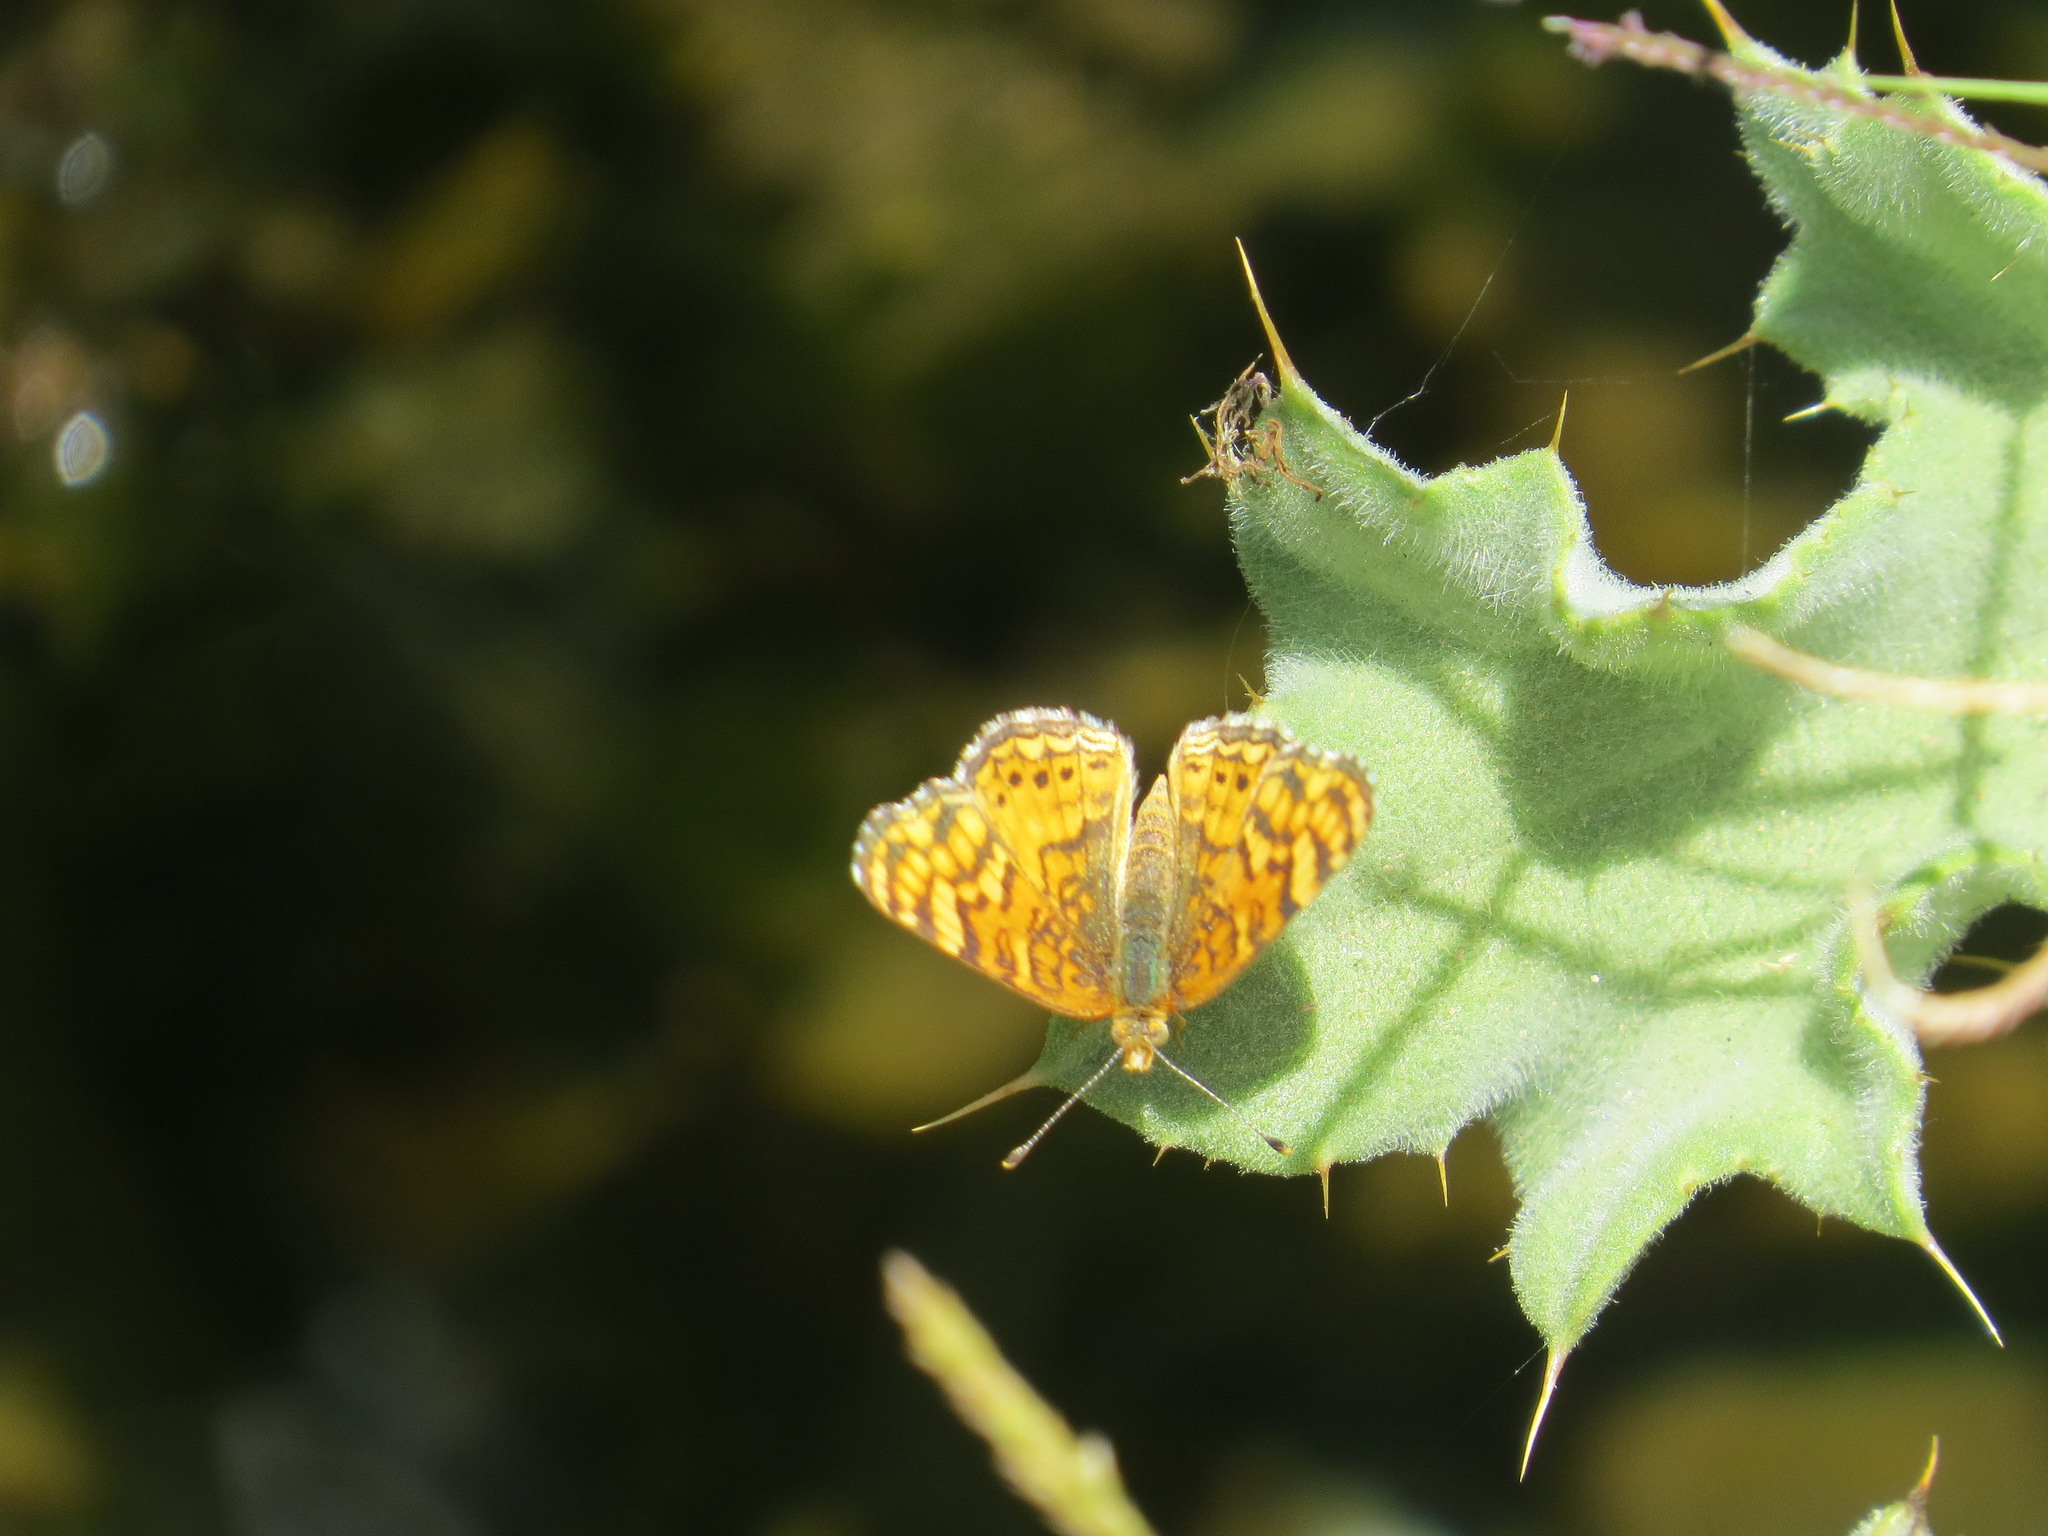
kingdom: Animalia
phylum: Arthropoda
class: Insecta
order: Lepidoptera
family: Nymphalidae
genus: Eresia
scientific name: Eresia aveyrona
